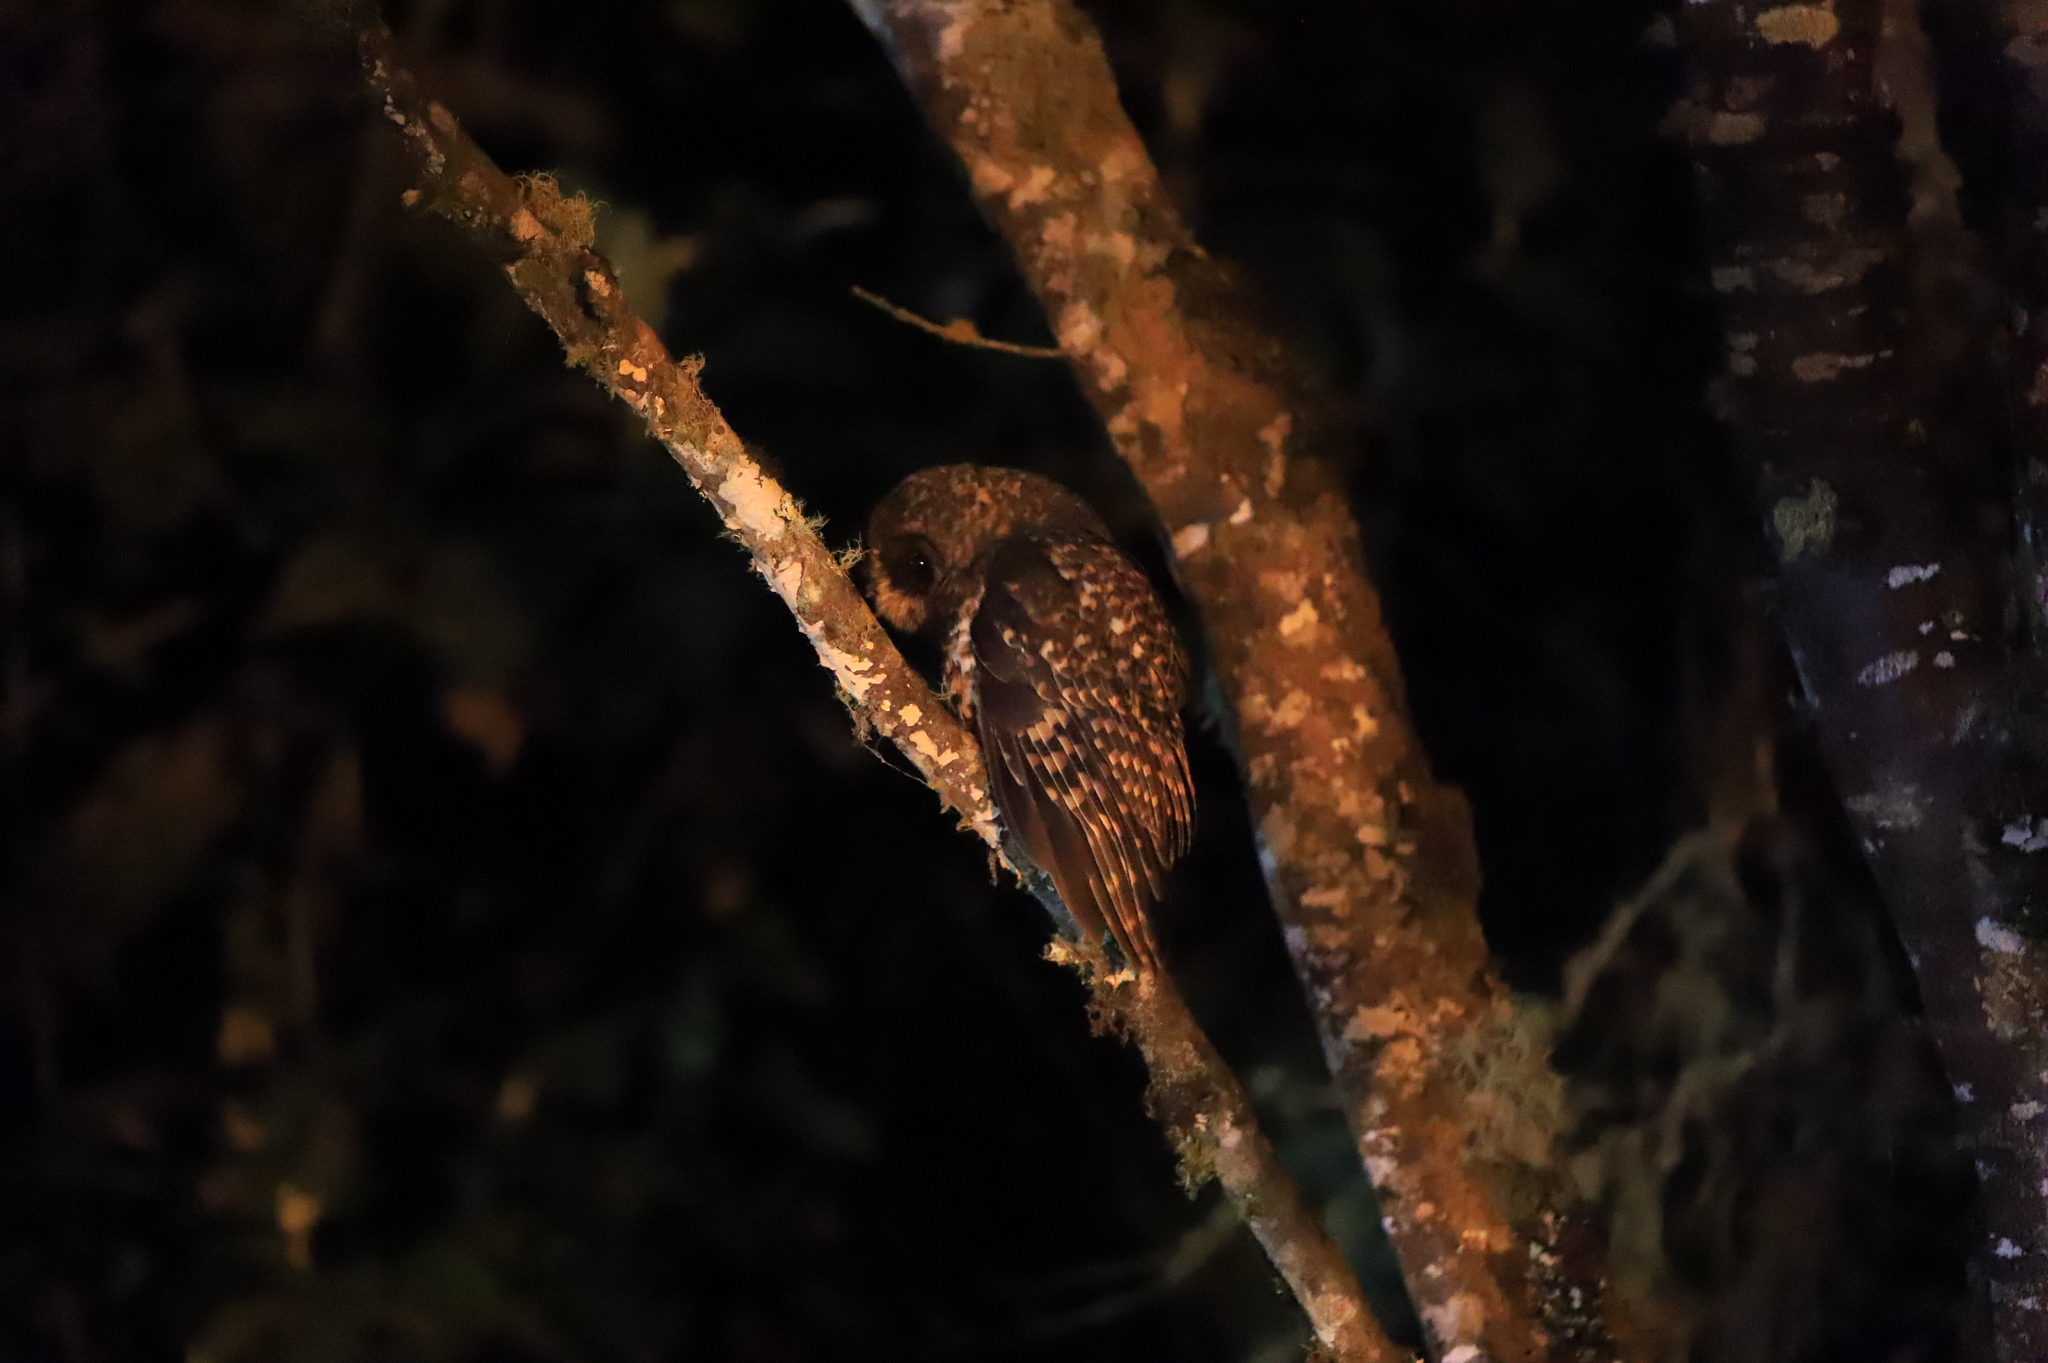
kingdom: Animalia
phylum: Chordata
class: Aves
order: Strigiformes
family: Strigidae
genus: Strix
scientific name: Strix albitarsis
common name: Rufous-banded owl
